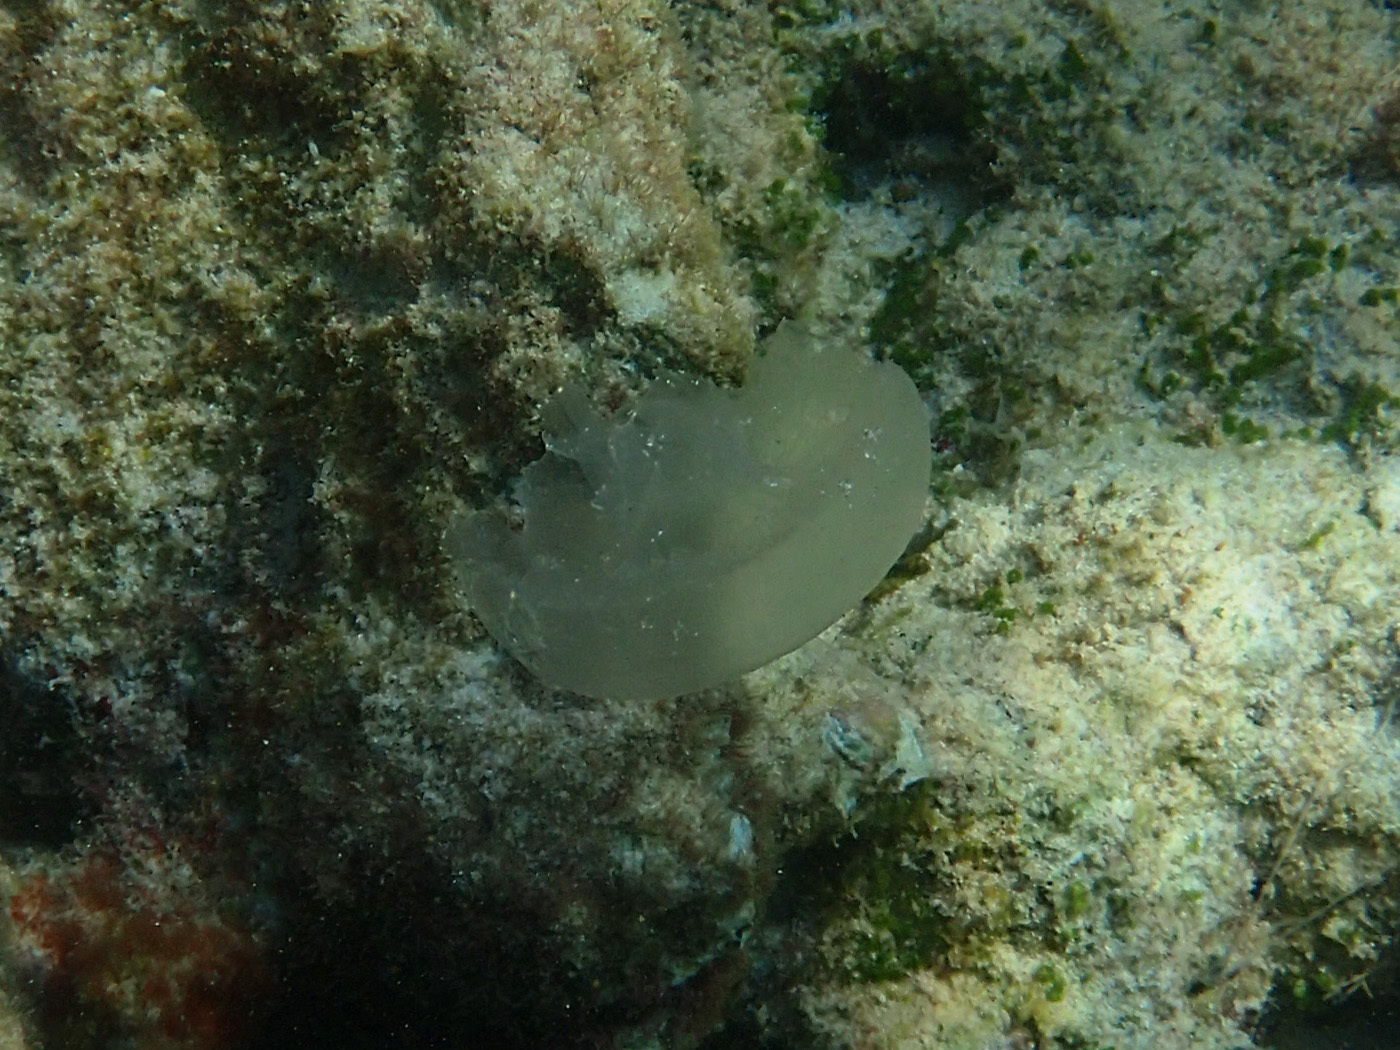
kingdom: Animalia
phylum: Cnidaria
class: Scyphozoa
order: Semaeostomeae
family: Ulmaridae
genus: Aurelia
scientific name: Aurelia marginalis
